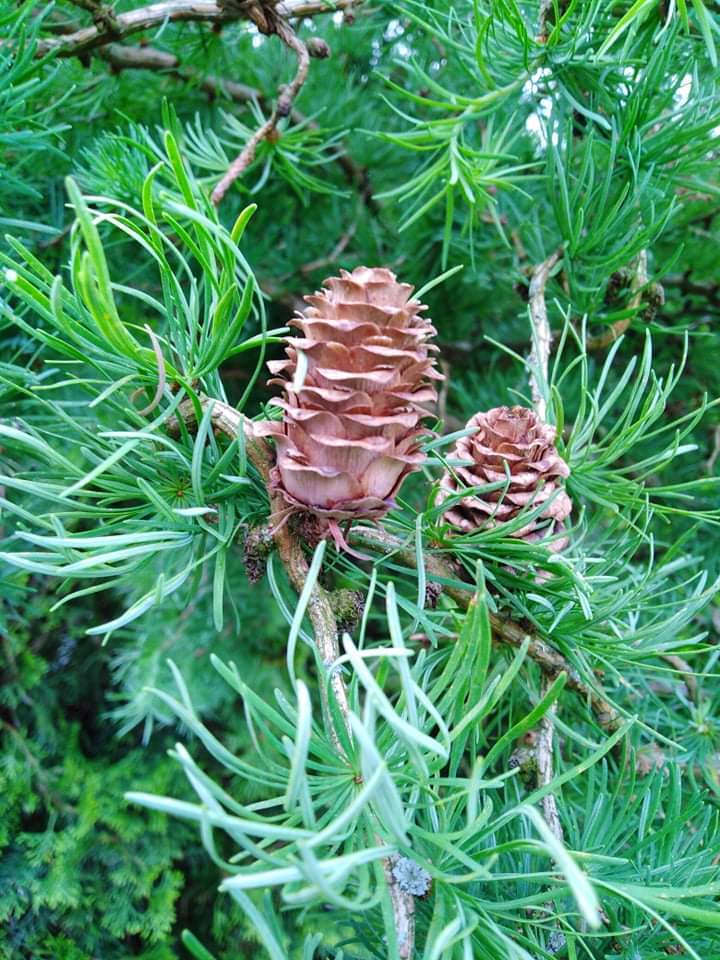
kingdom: Plantae
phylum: Tracheophyta
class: Pinopsida
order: Pinales
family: Pinaceae
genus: Larix
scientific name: Larix decidua
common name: European larch
